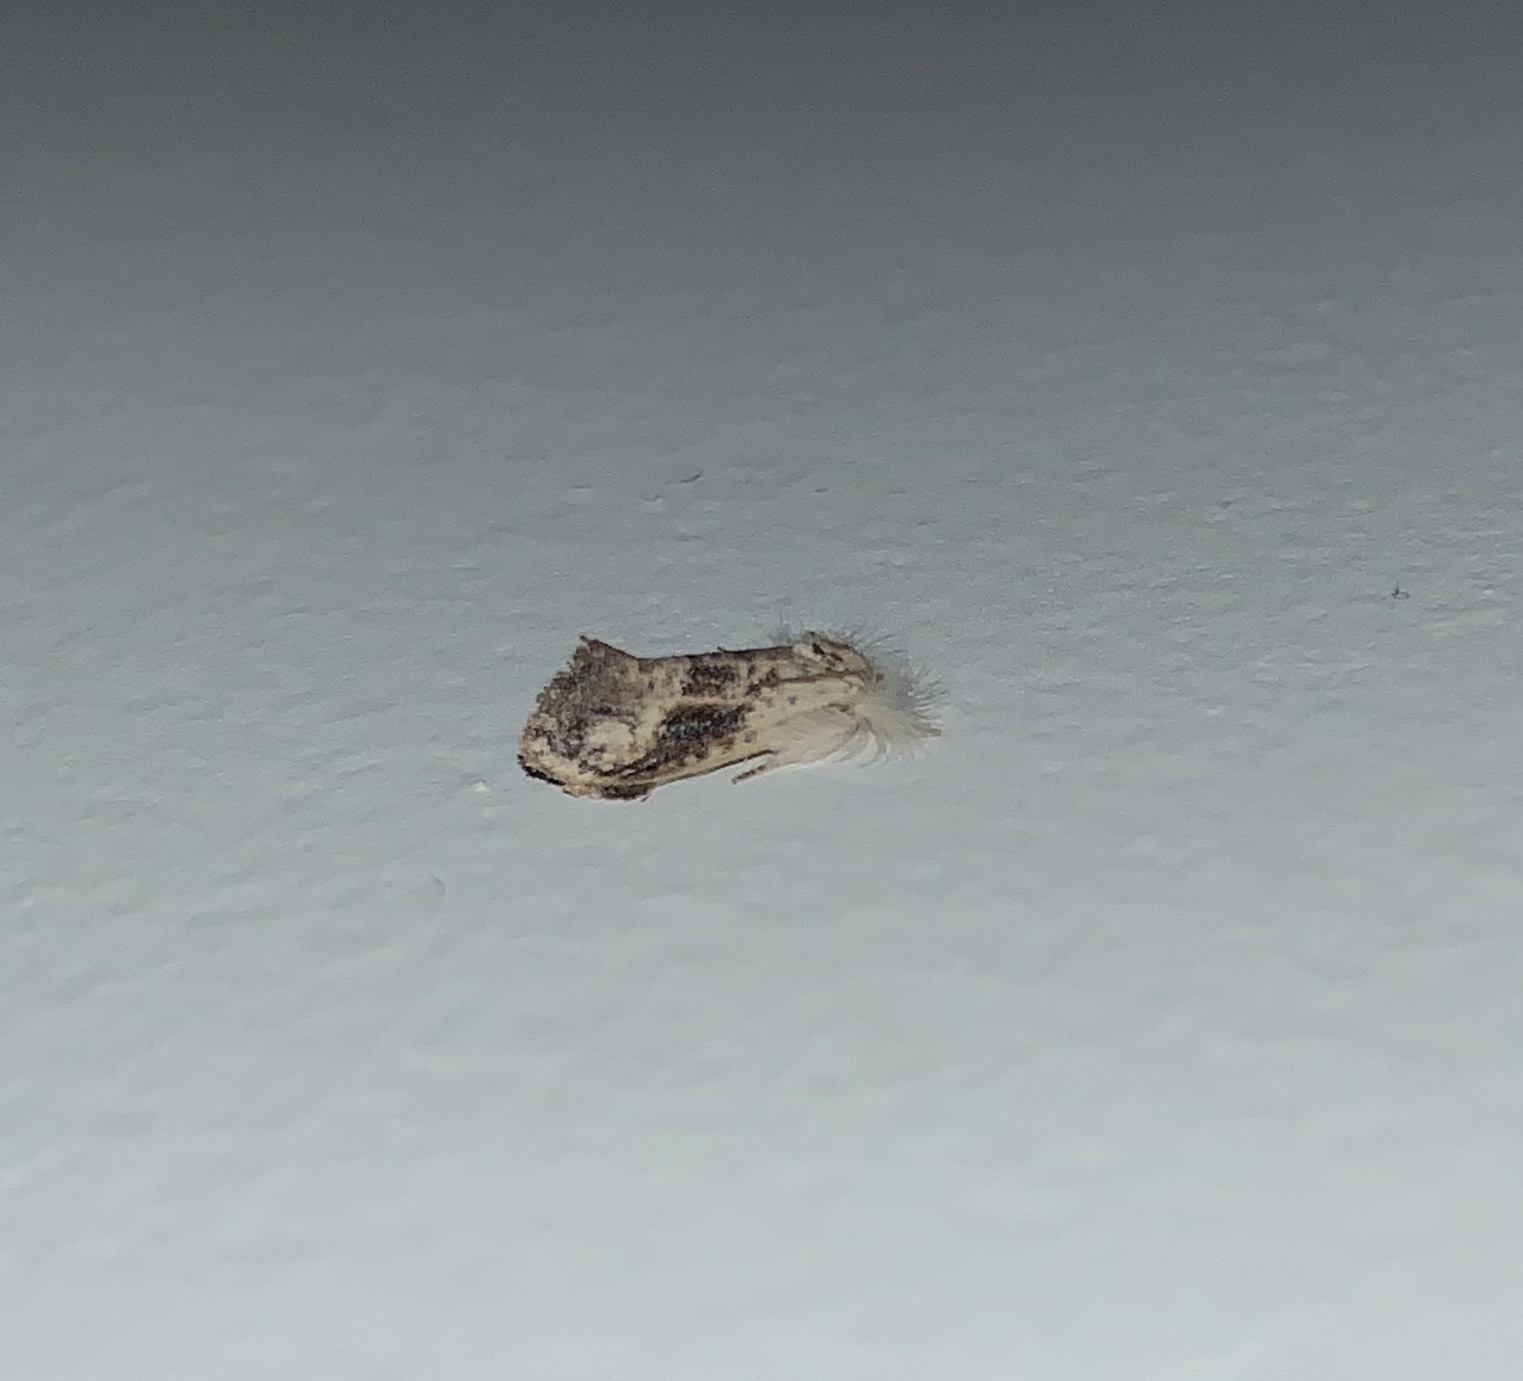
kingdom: Animalia
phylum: Arthropoda
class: Insecta
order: Lepidoptera
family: Tineidae
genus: Acrolophus
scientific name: Acrolophus mycetophagus
